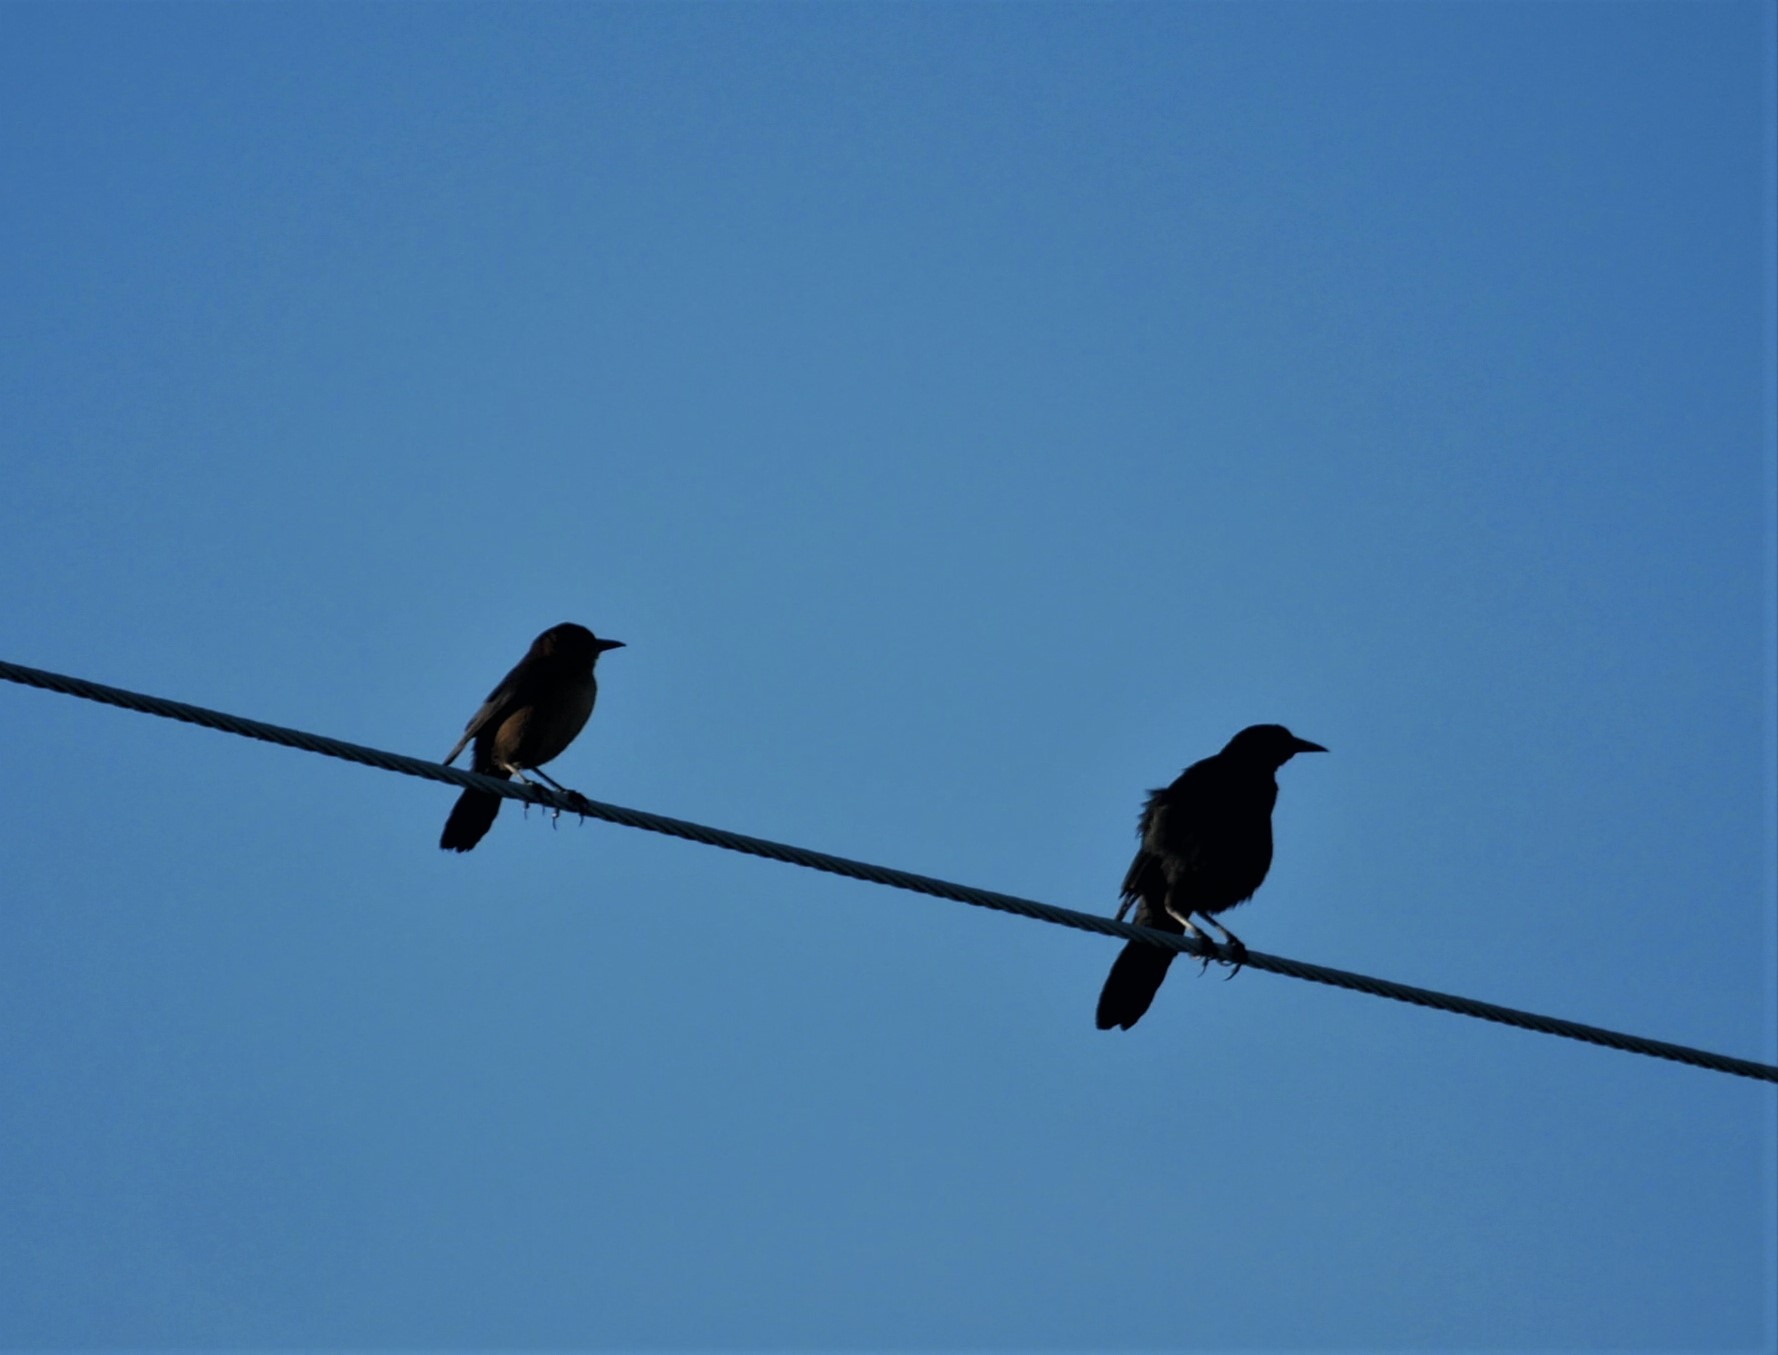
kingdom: Animalia
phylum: Chordata
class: Aves
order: Passeriformes
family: Icteridae
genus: Quiscalus
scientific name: Quiscalus major
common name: Boat-tailed grackle
